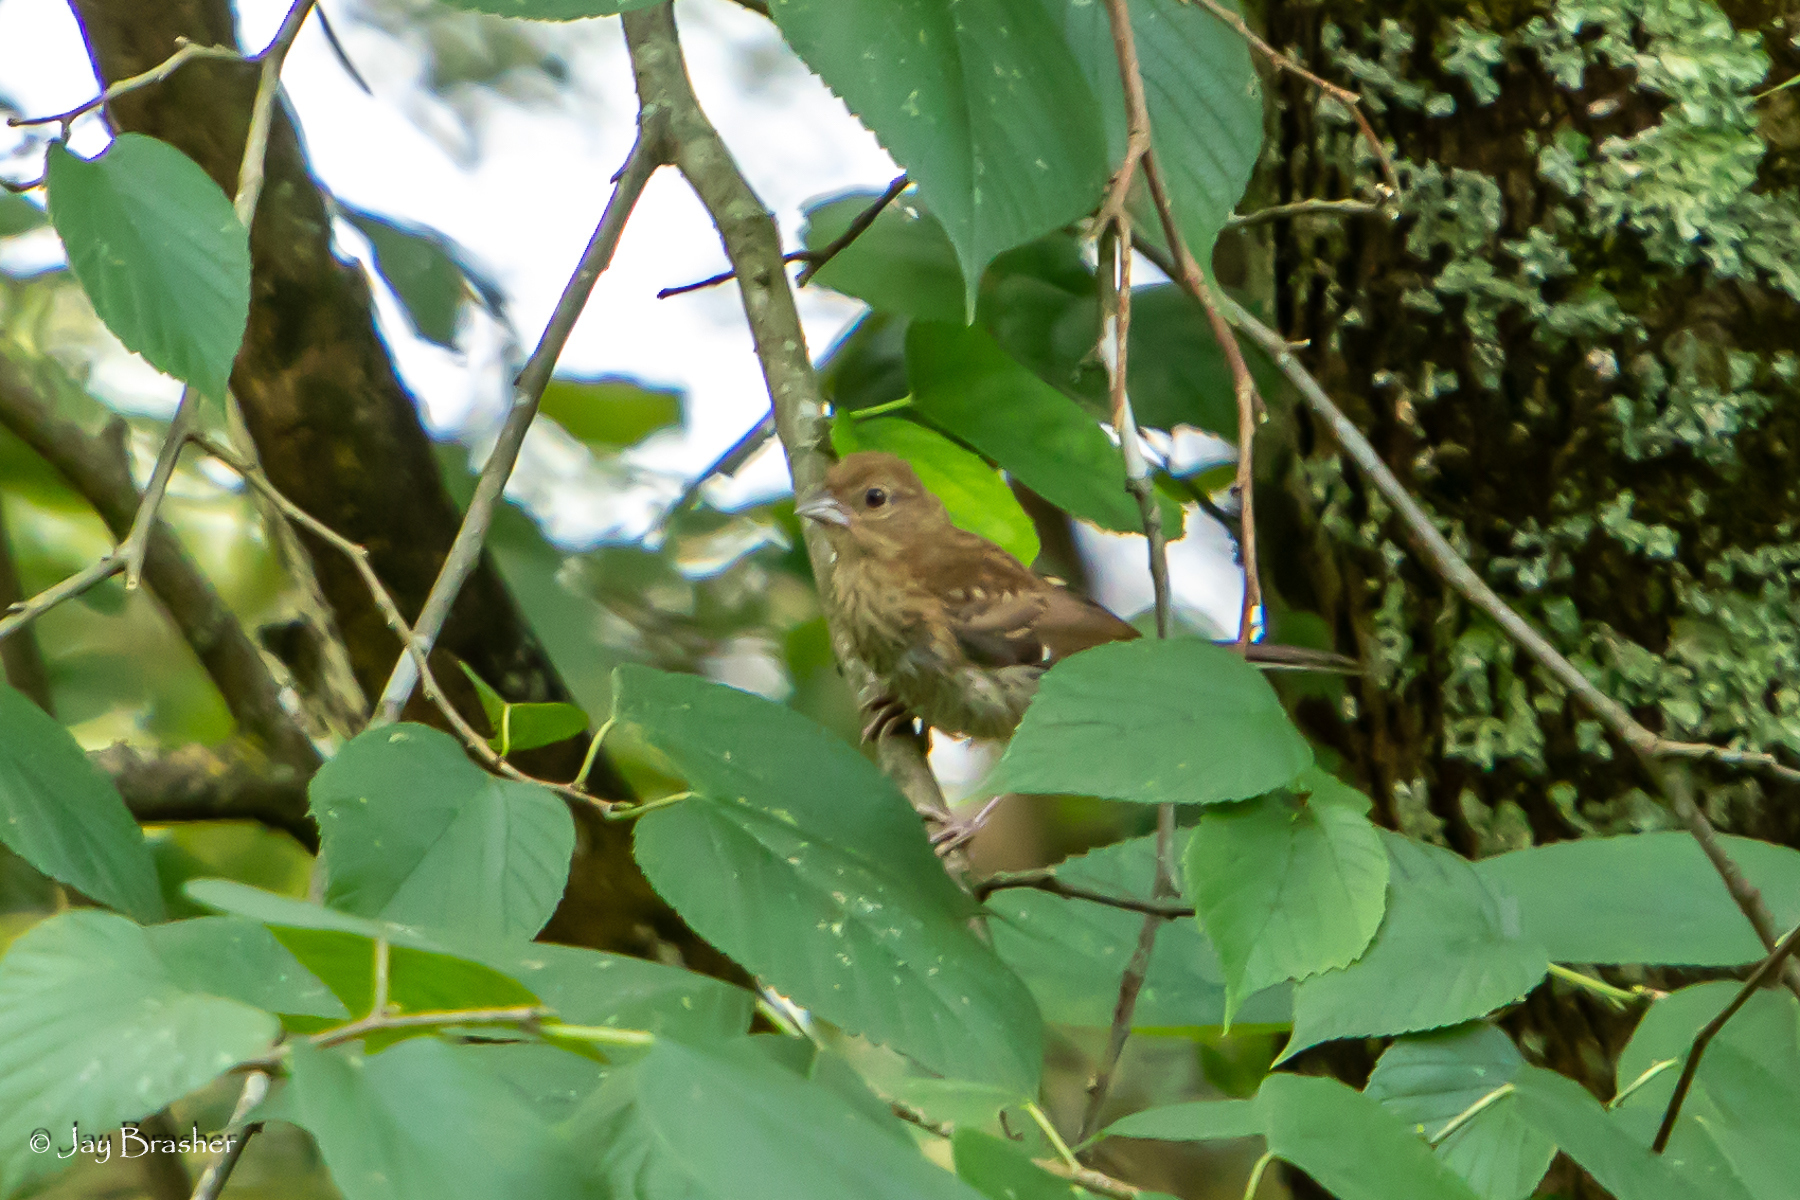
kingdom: Animalia
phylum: Chordata
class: Aves
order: Passeriformes
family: Cardinalidae
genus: Passerina
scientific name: Passerina cyanea
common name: Indigo bunting
